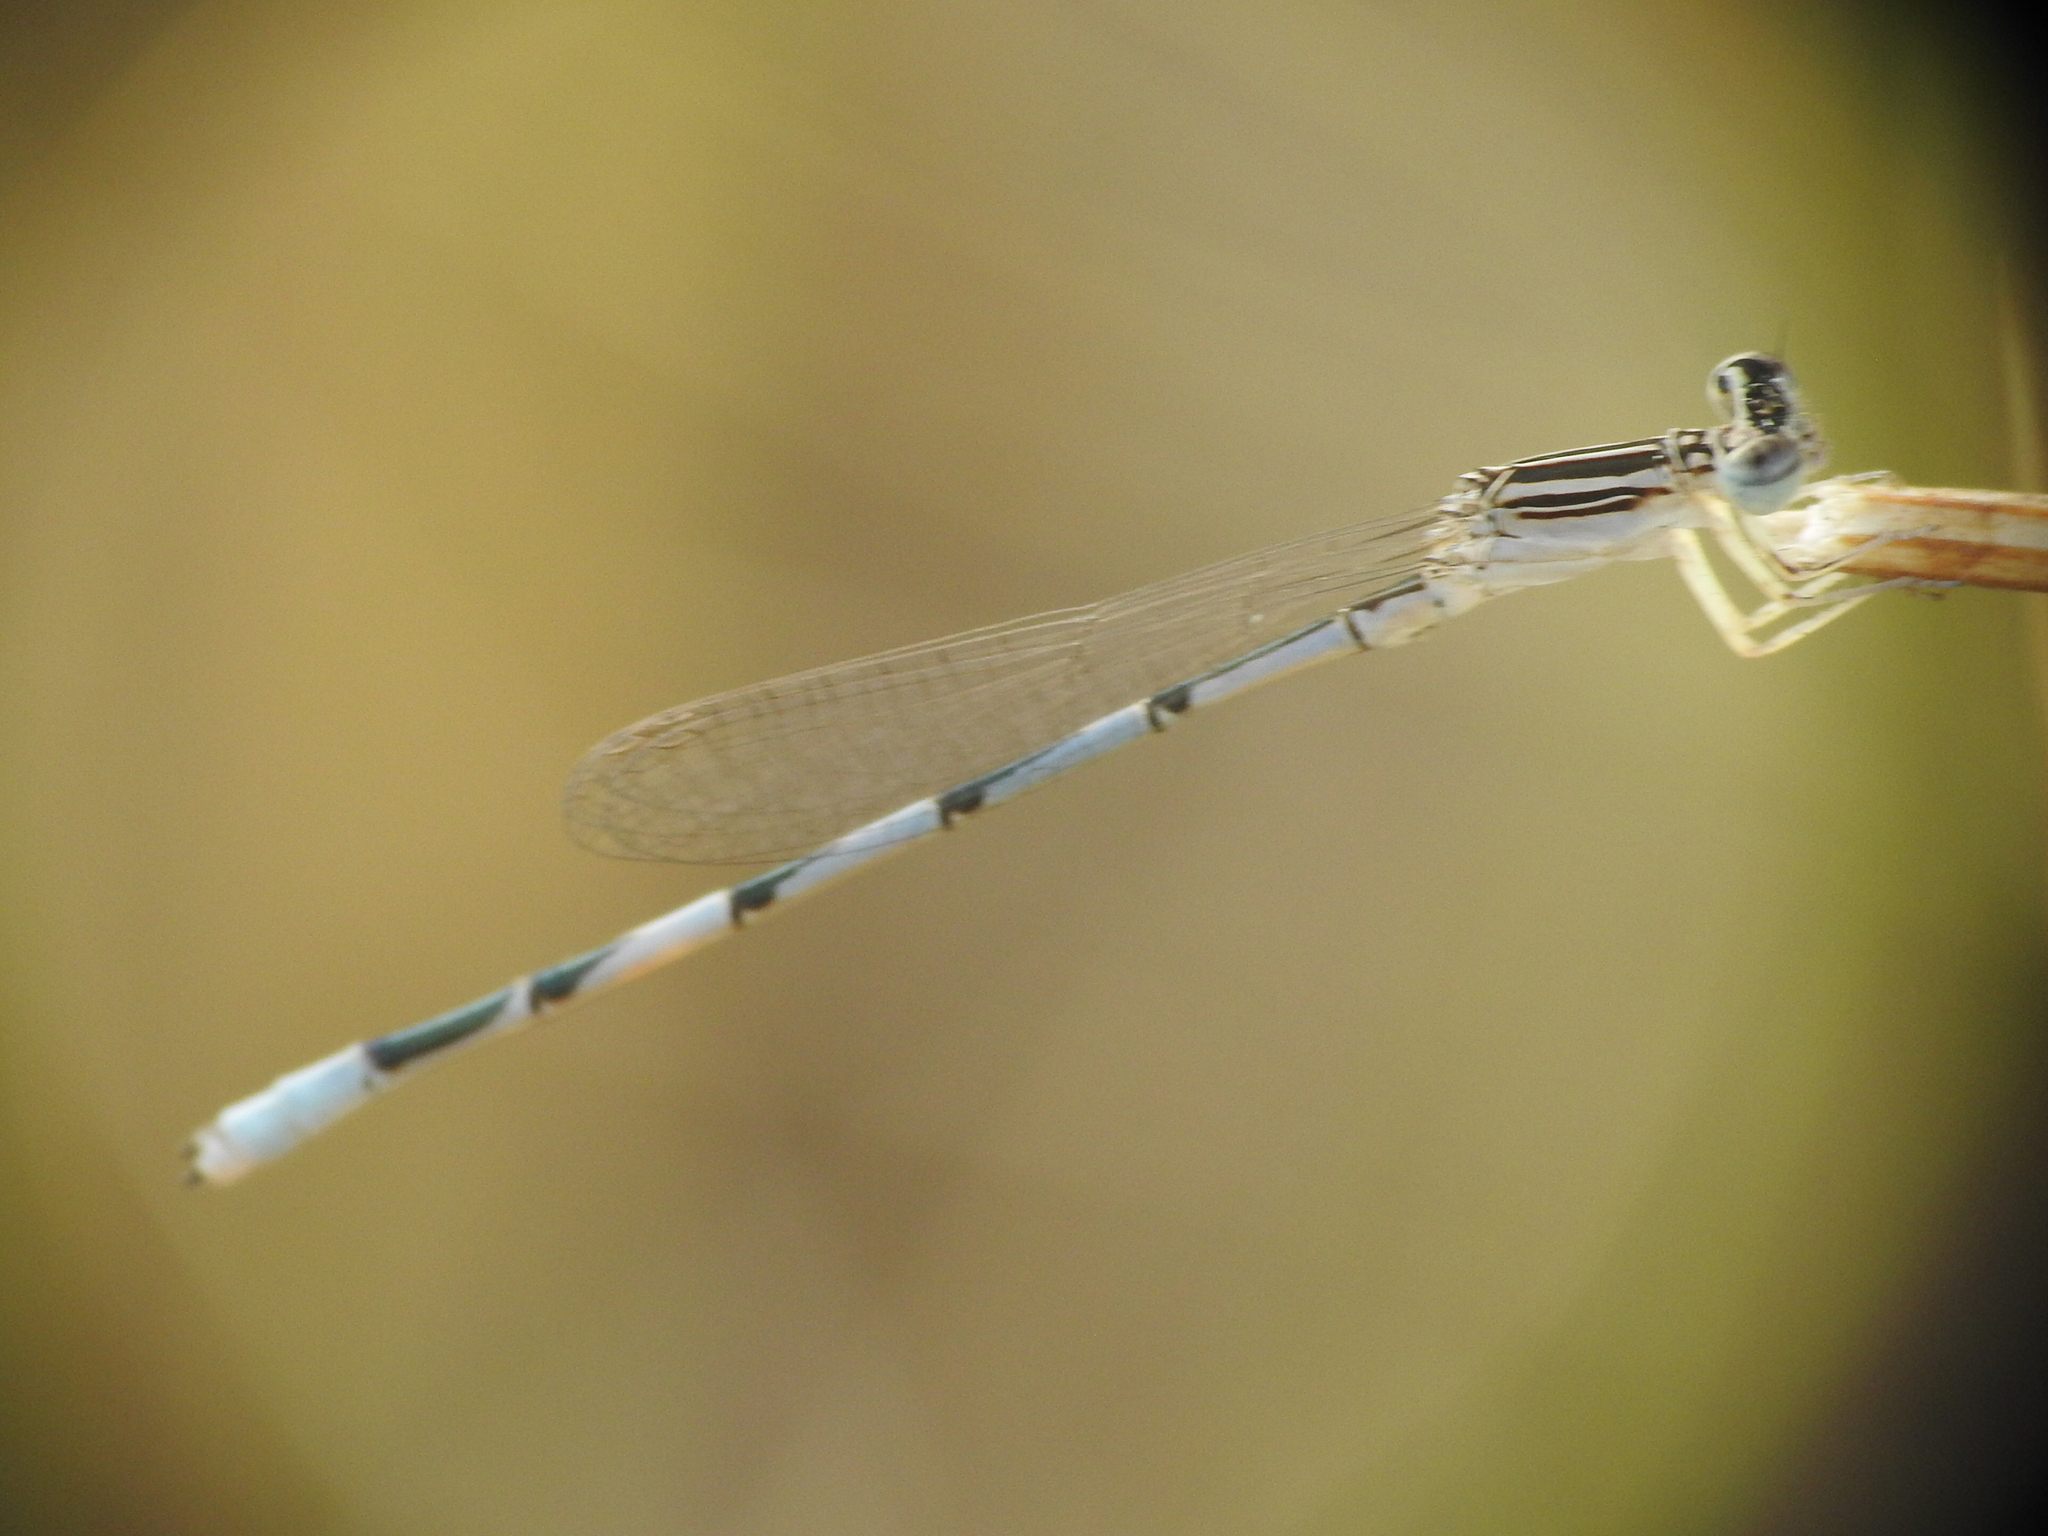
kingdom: Animalia
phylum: Arthropoda
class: Insecta
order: Odonata
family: Coenagrionidae
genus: Enallagma
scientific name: Enallagma basidens
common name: Double-striped bluet
